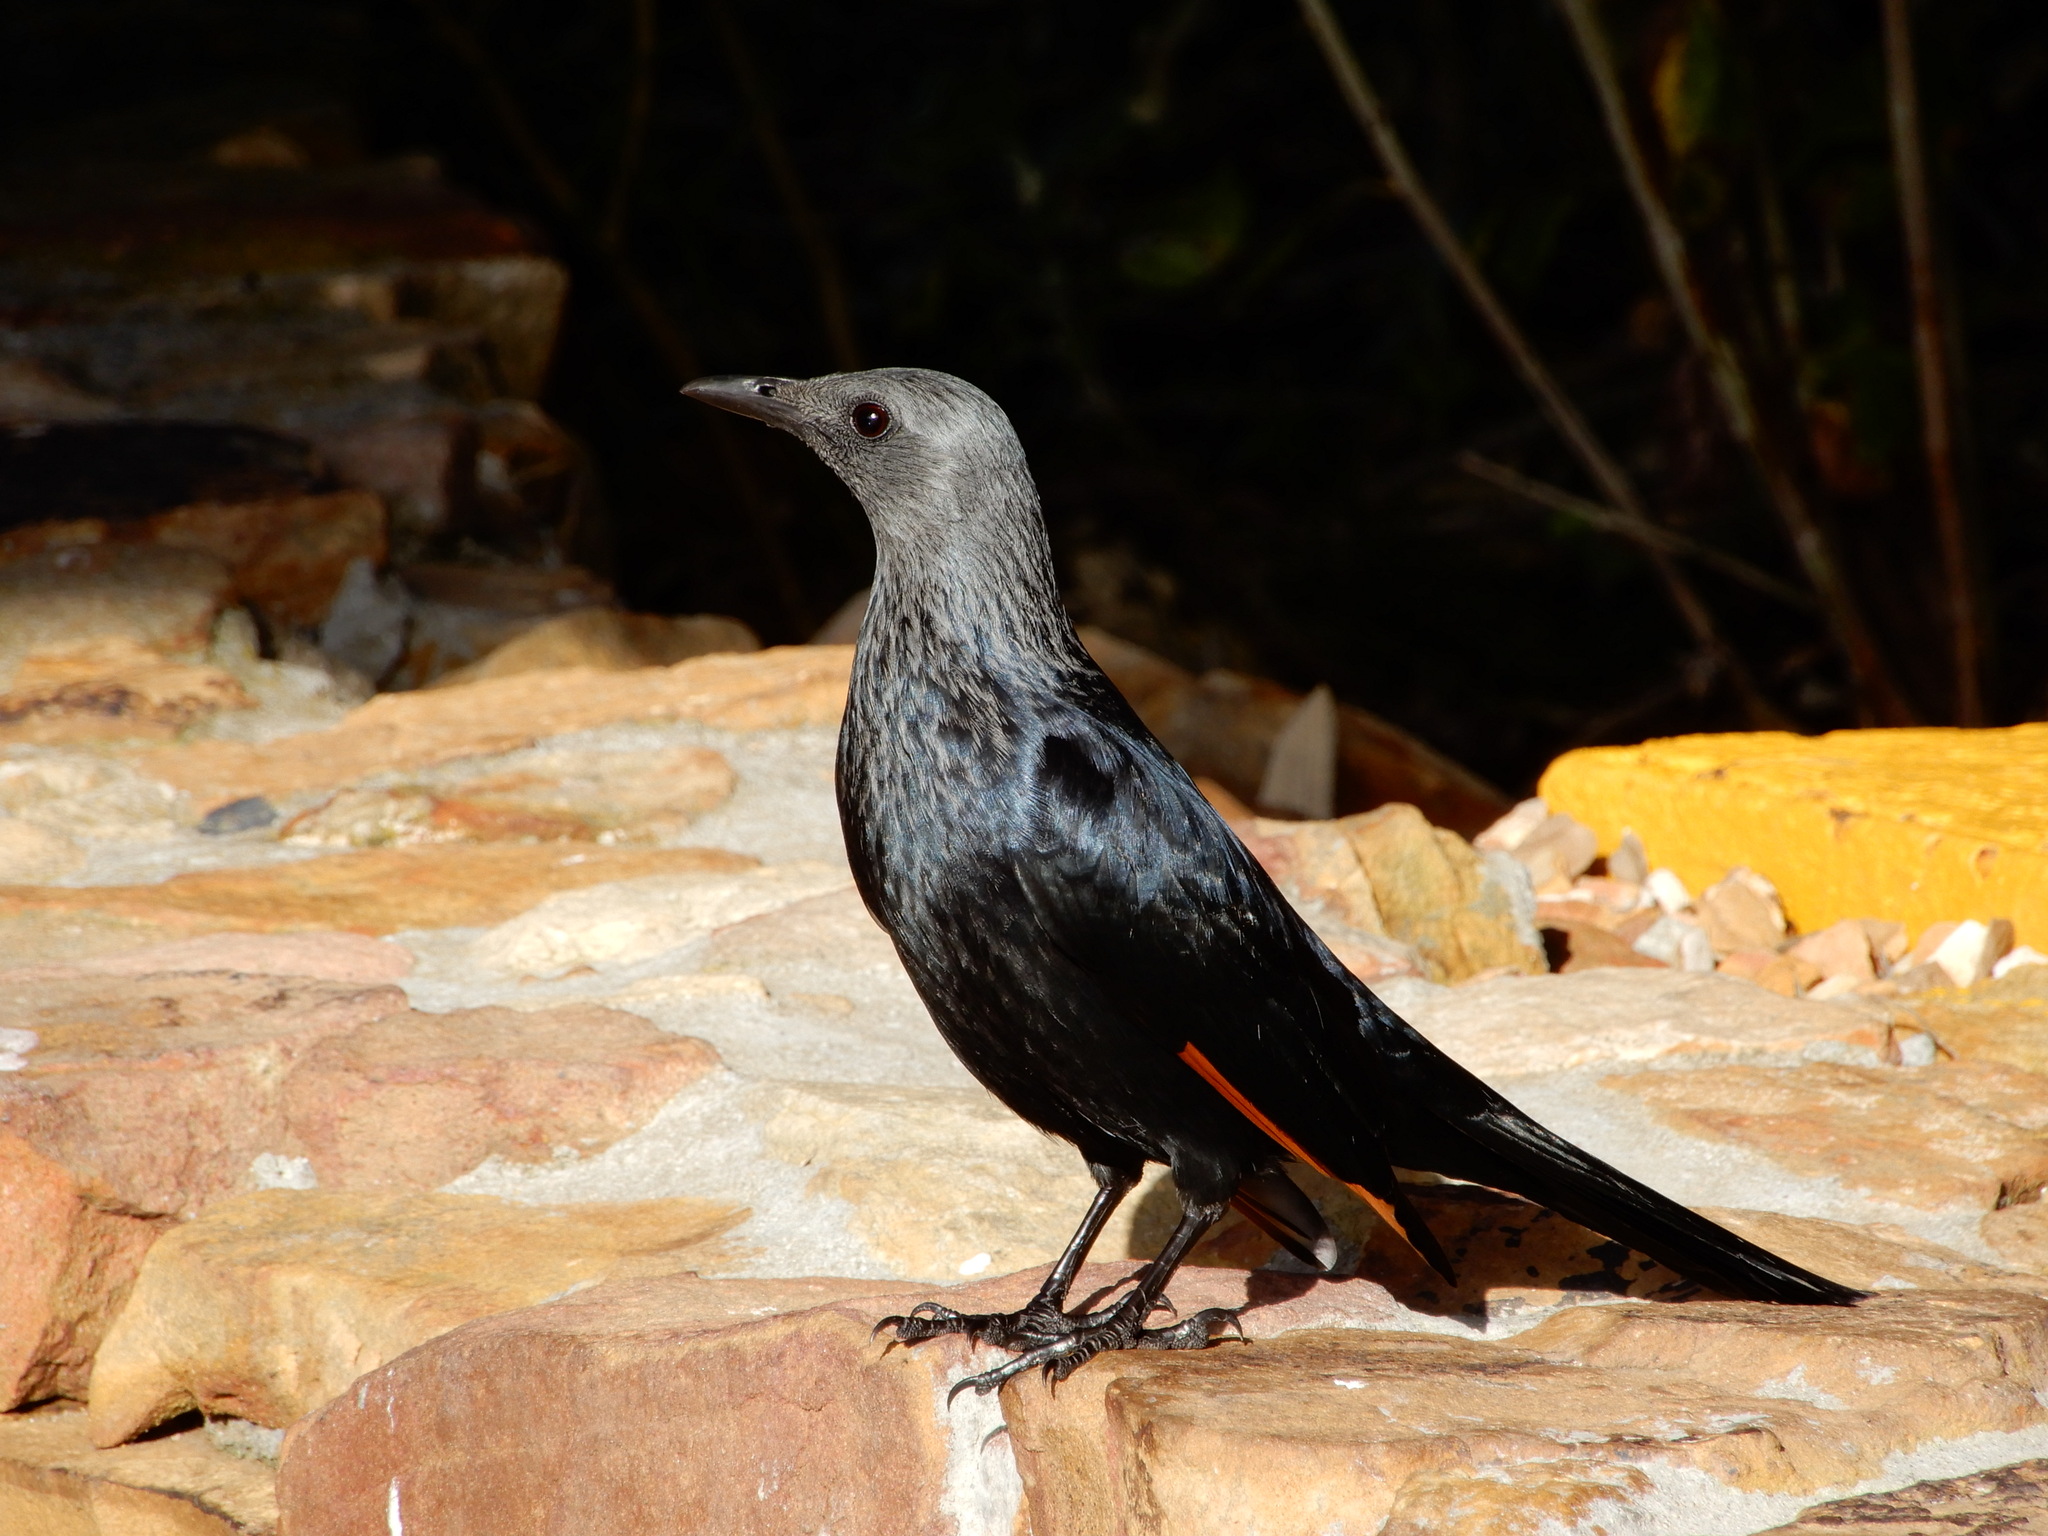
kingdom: Animalia
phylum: Chordata
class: Aves
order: Passeriformes
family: Sturnidae
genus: Onychognathus
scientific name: Onychognathus morio
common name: Red-winged starling
